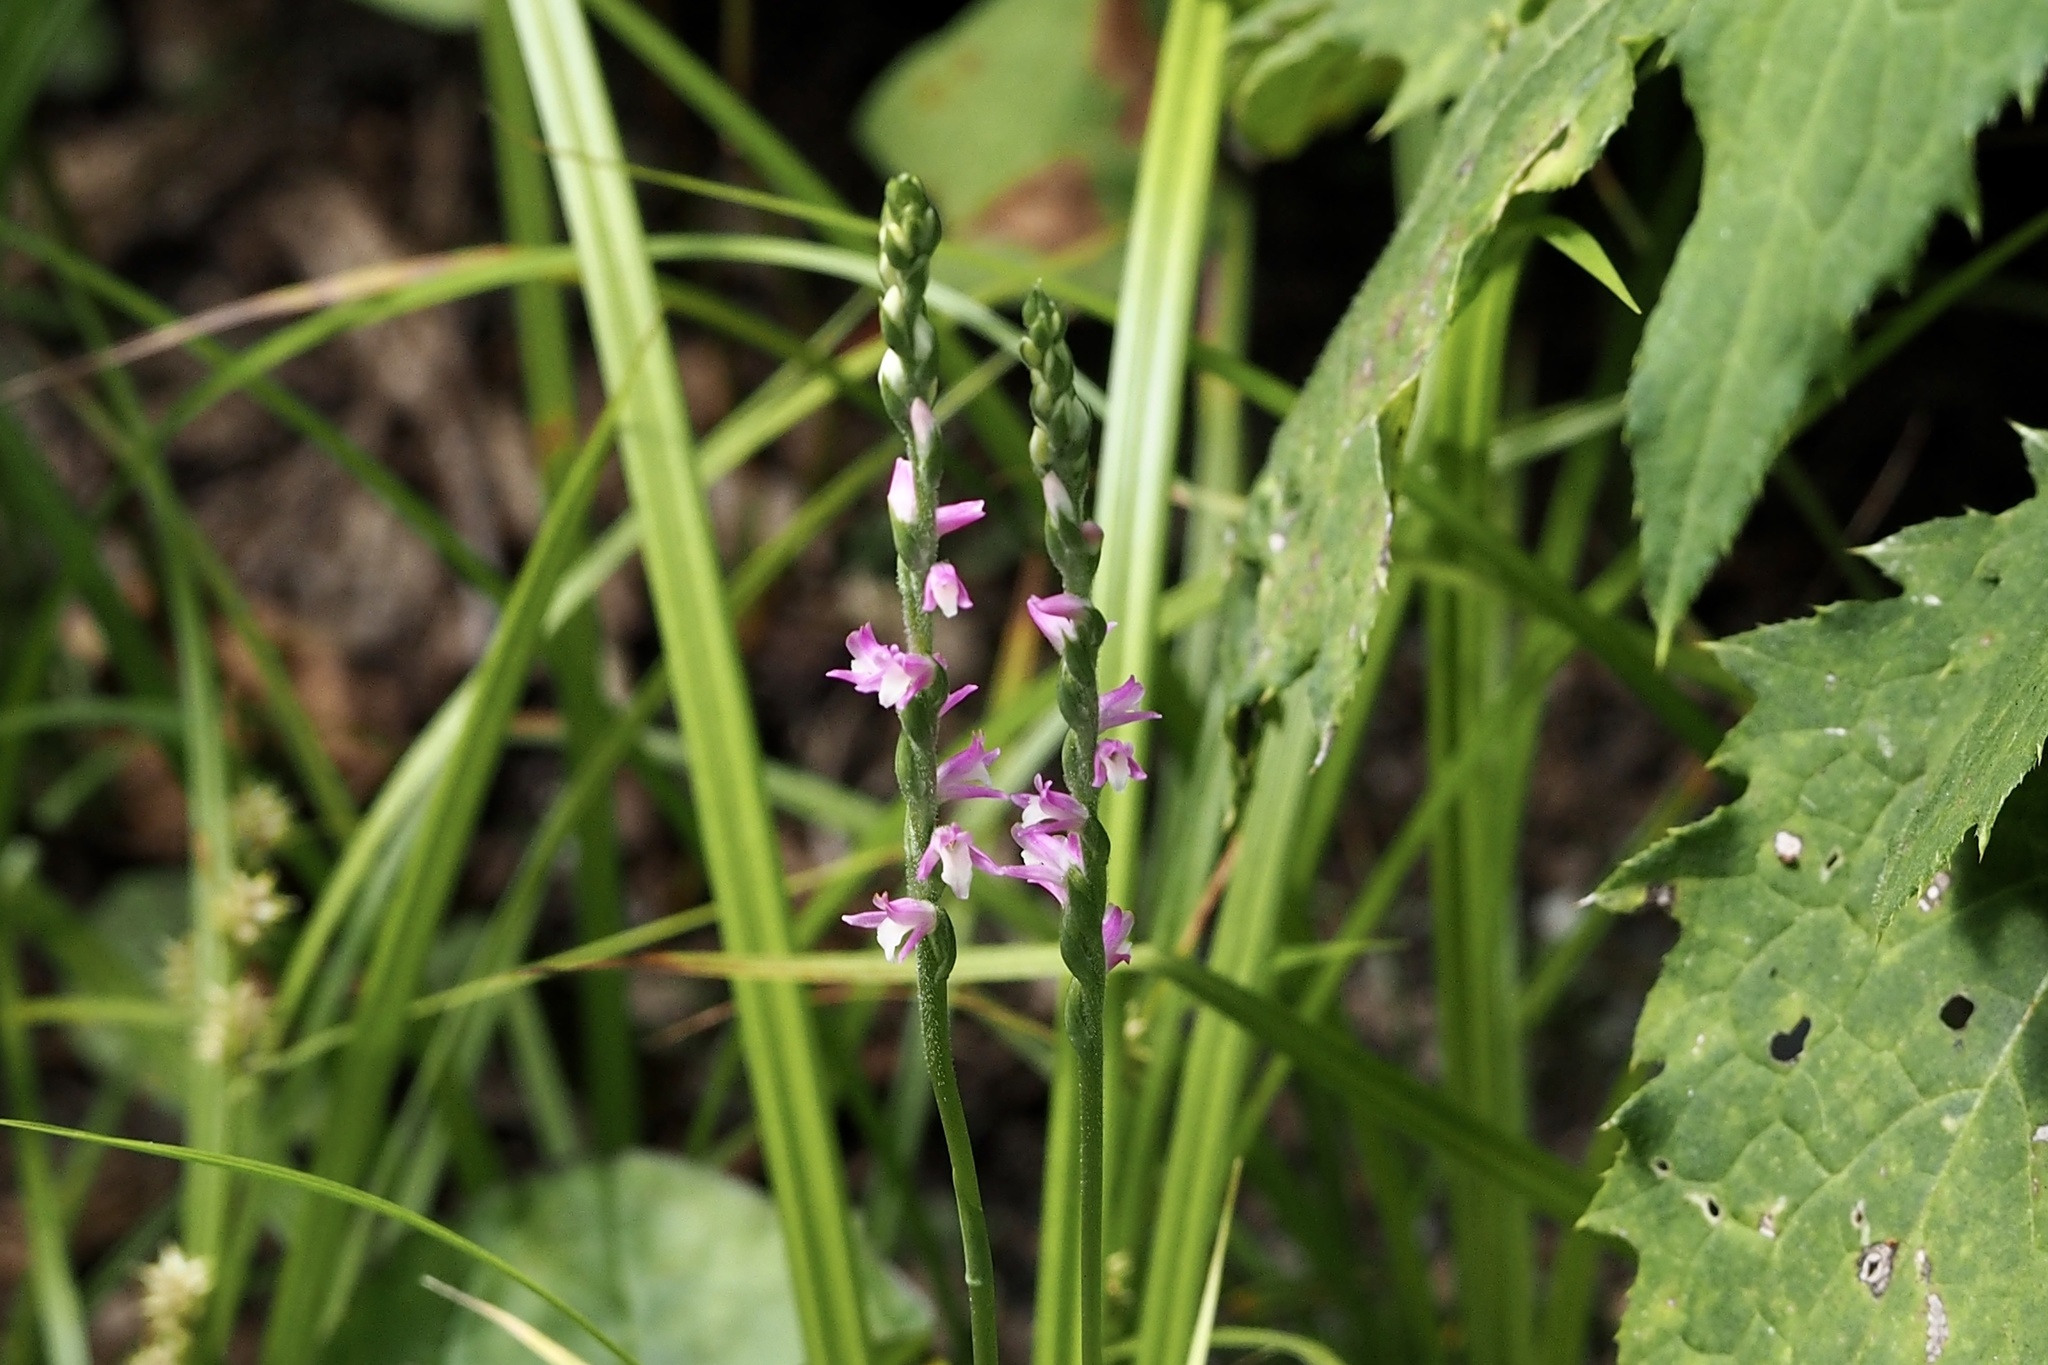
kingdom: Plantae
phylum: Tracheophyta
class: Liliopsida
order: Asparagales
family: Orchidaceae
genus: Spiranthes
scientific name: Spiranthes australis
